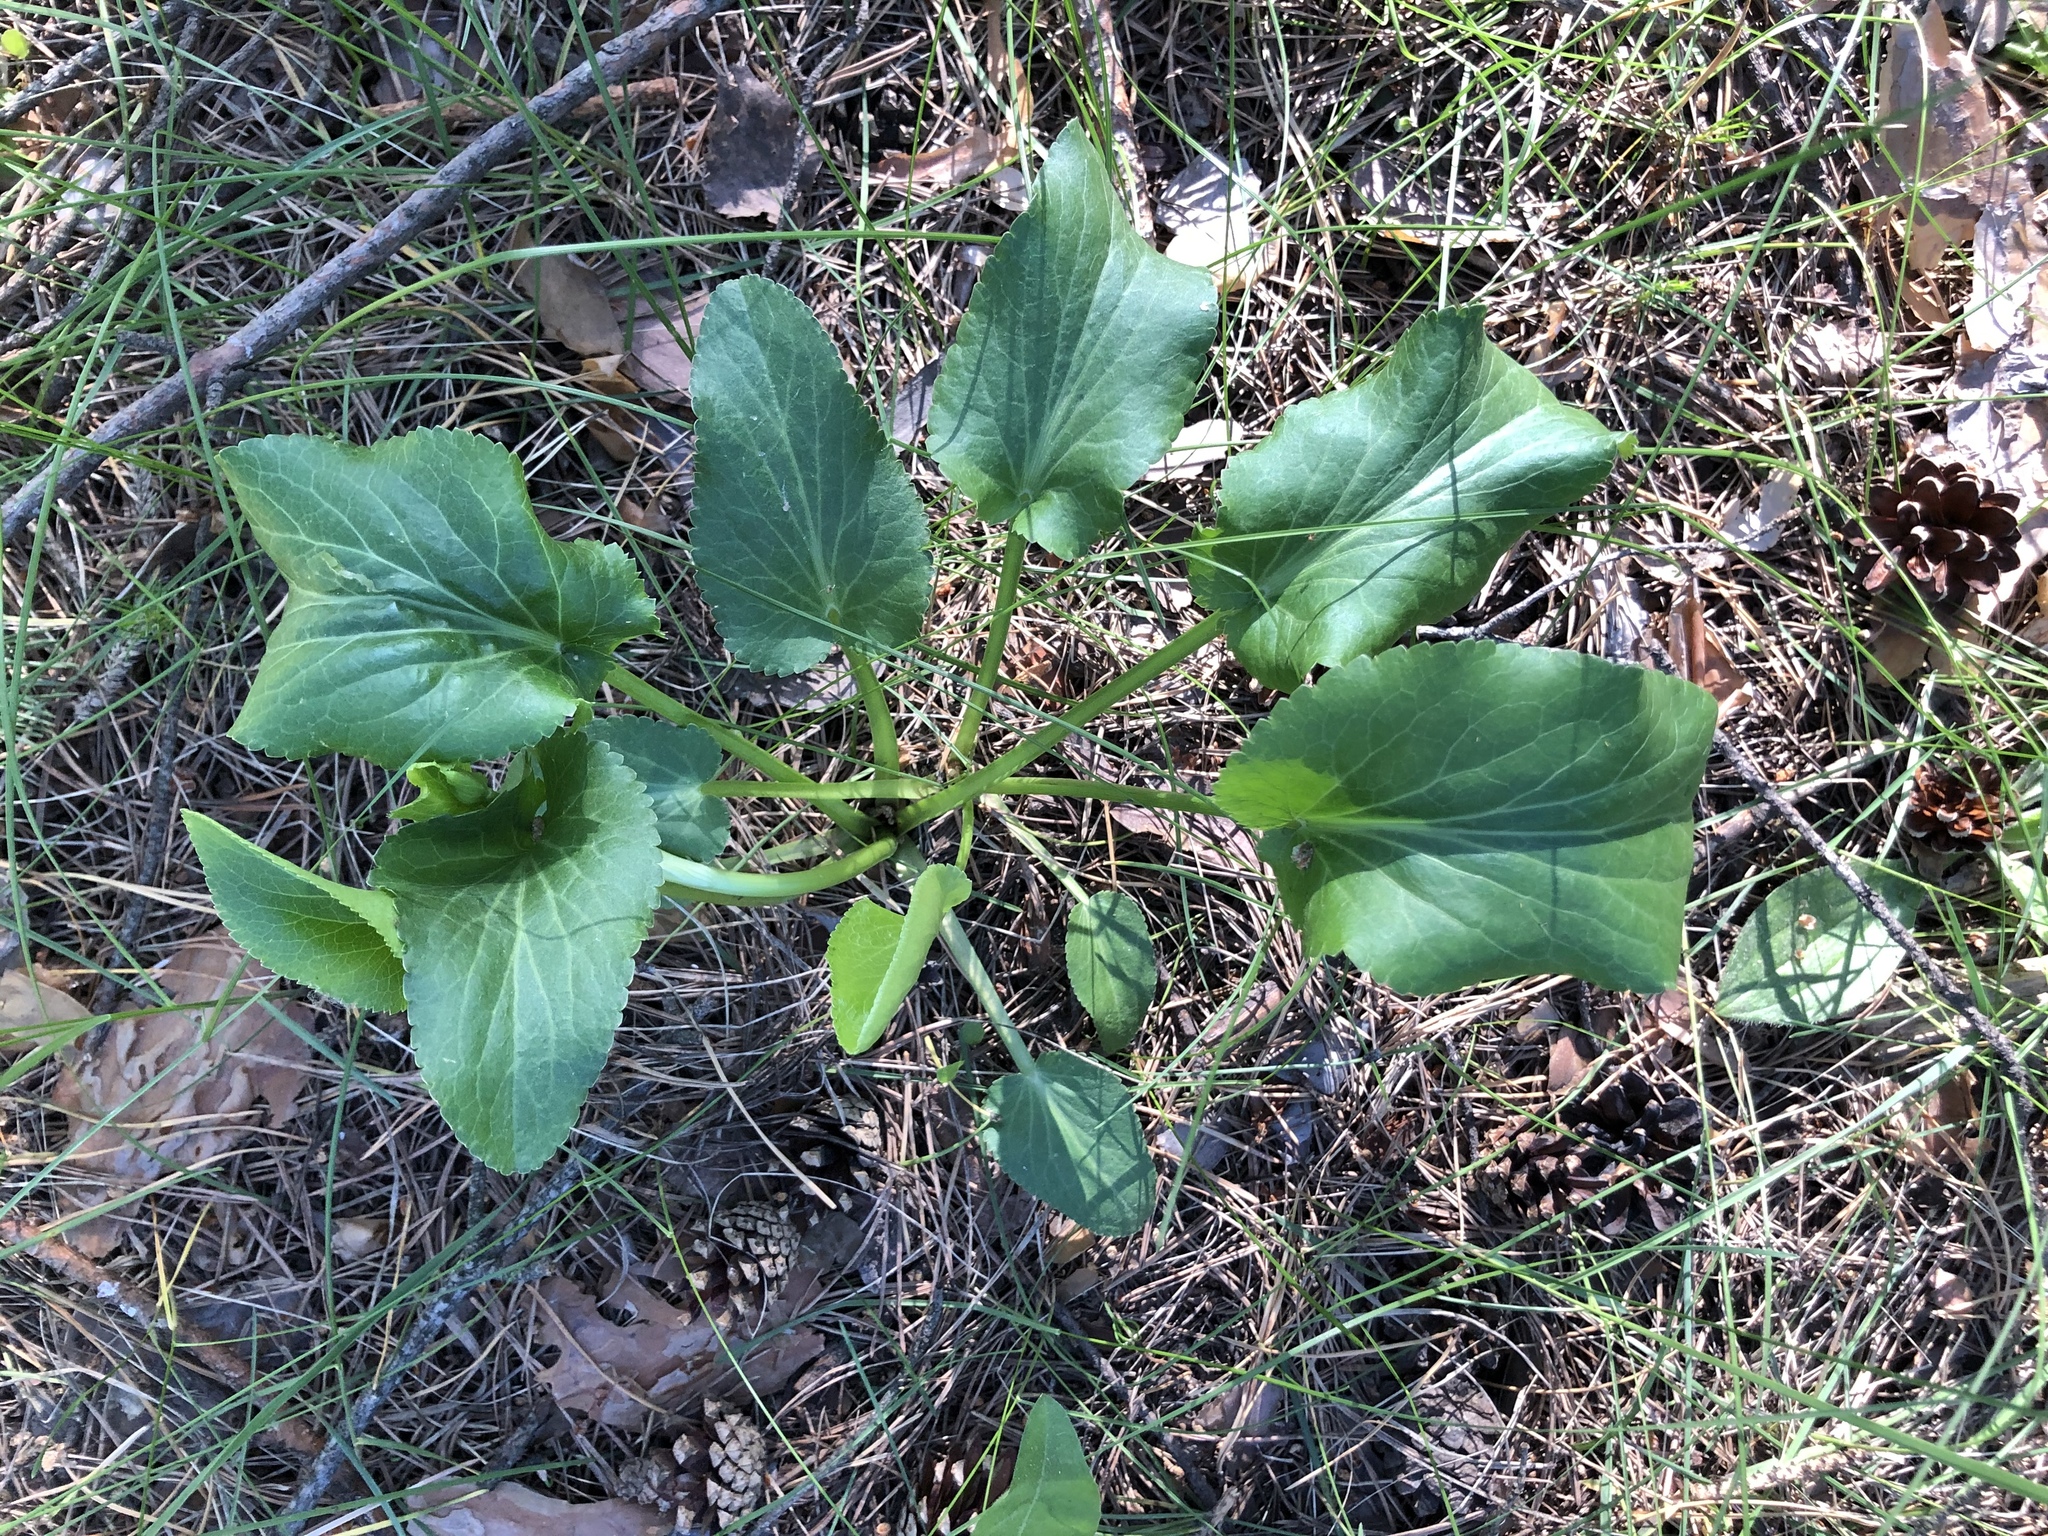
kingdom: Plantae
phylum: Tracheophyta
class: Magnoliopsida
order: Apiales
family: Apiaceae
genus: Eryngium
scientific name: Eryngium planum
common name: Blue eryngo
